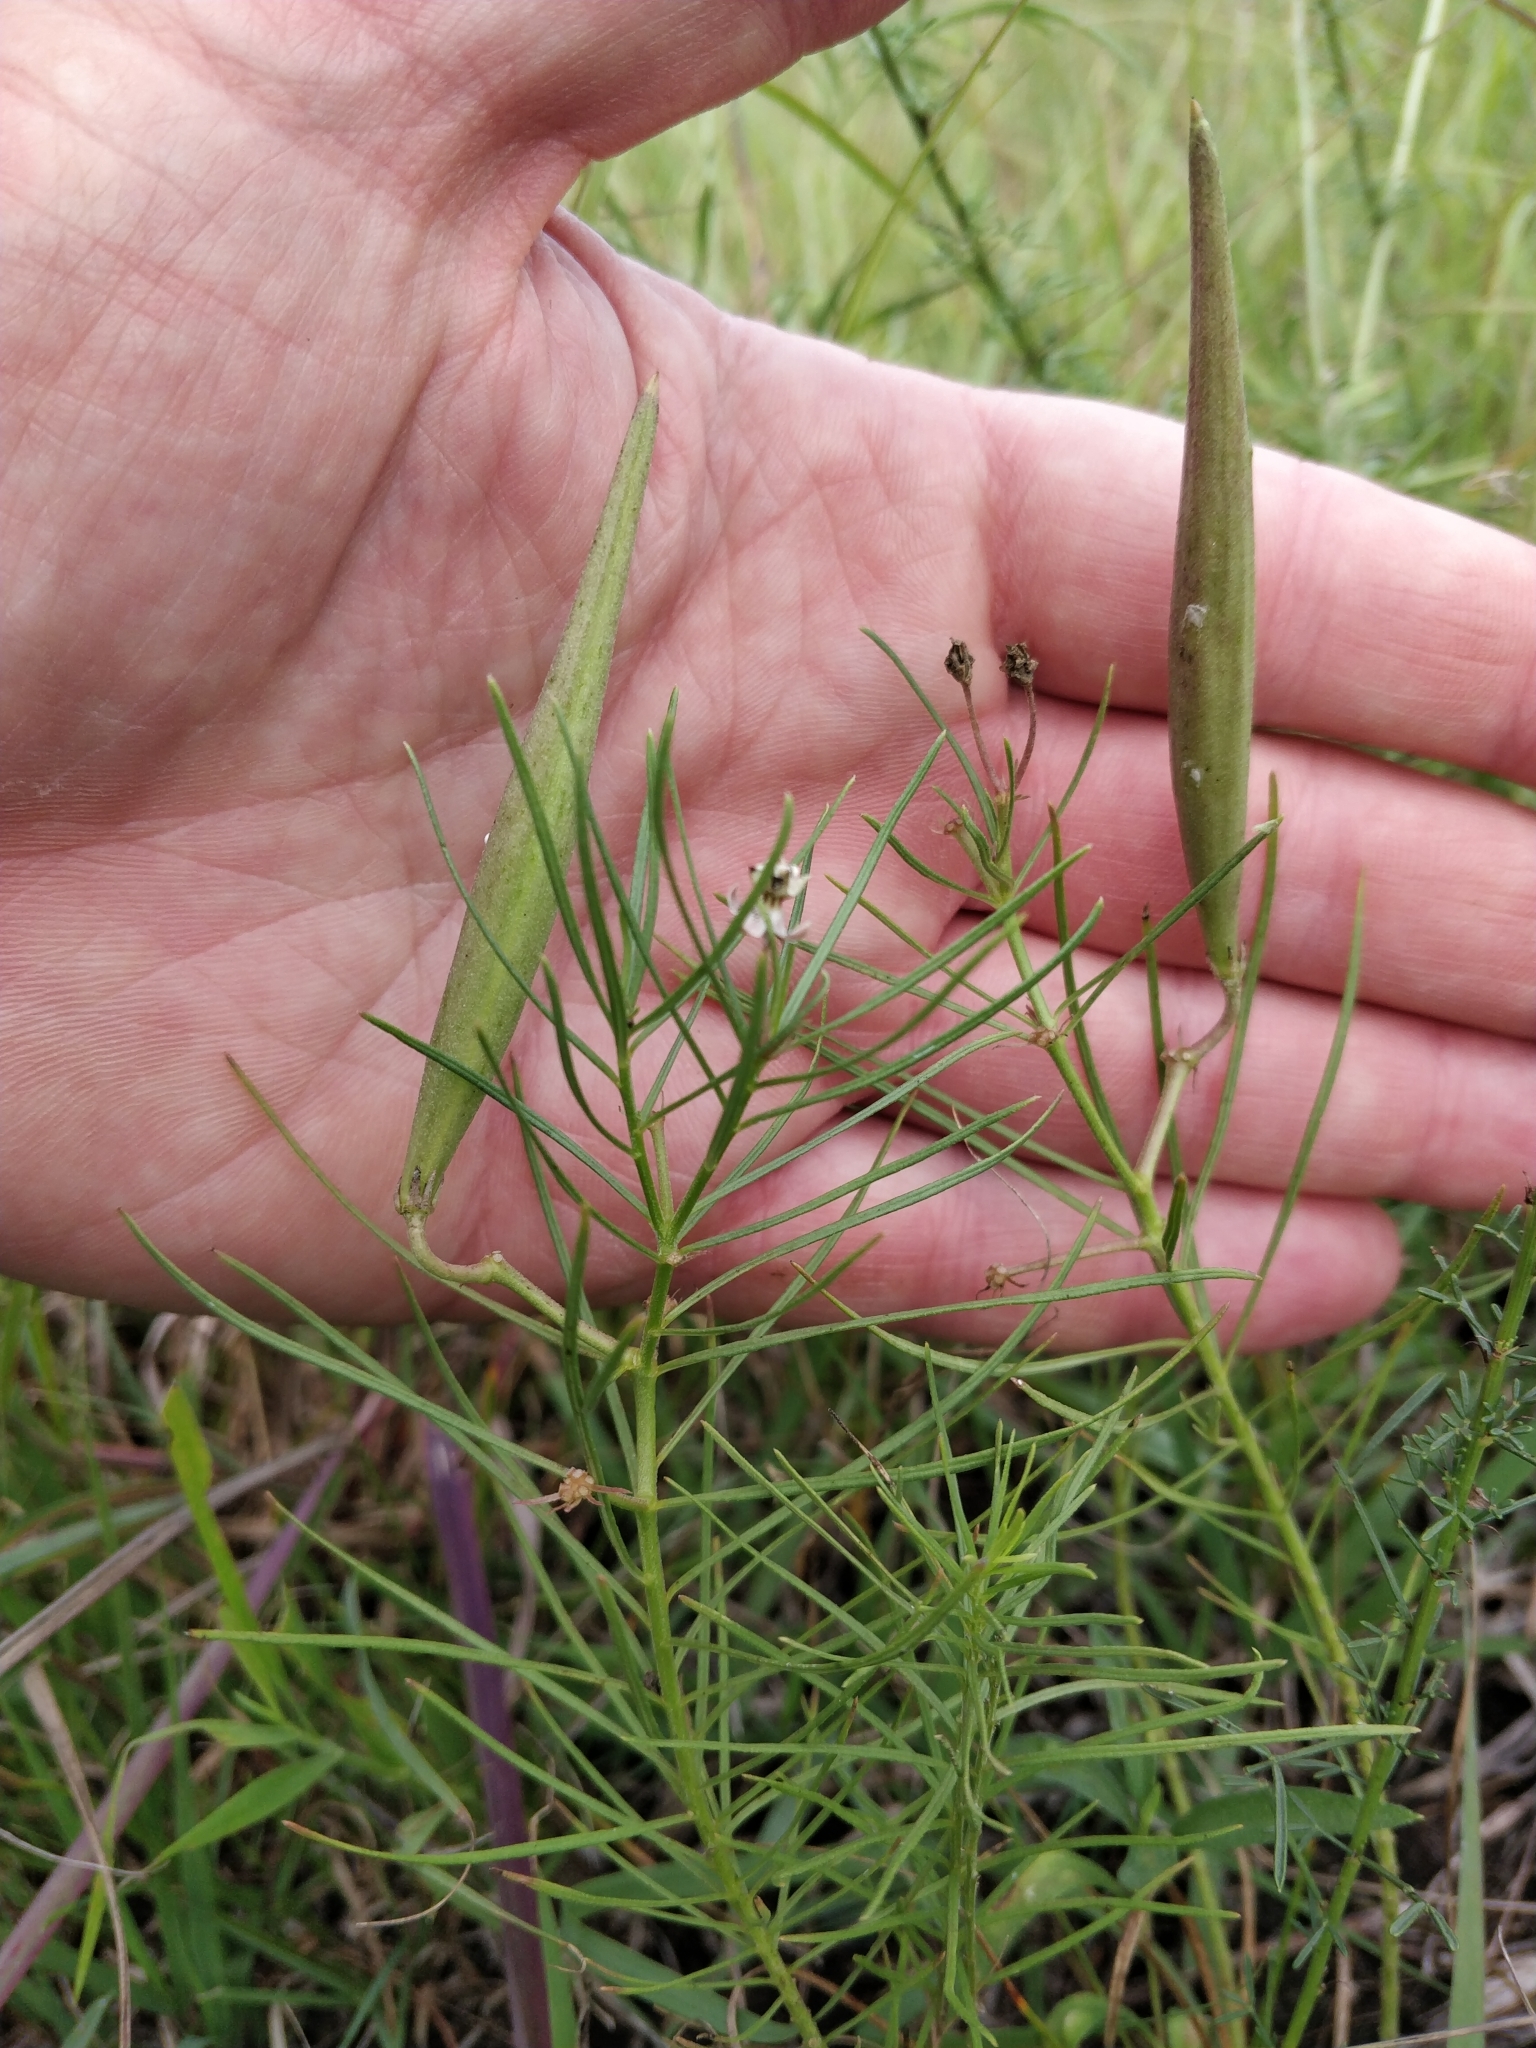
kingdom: Plantae
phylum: Tracheophyta
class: Magnoliopsida
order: Gentianales
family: Apocynaceae
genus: Asclepias
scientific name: Asclepias pumila
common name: Dwarf milkweed
